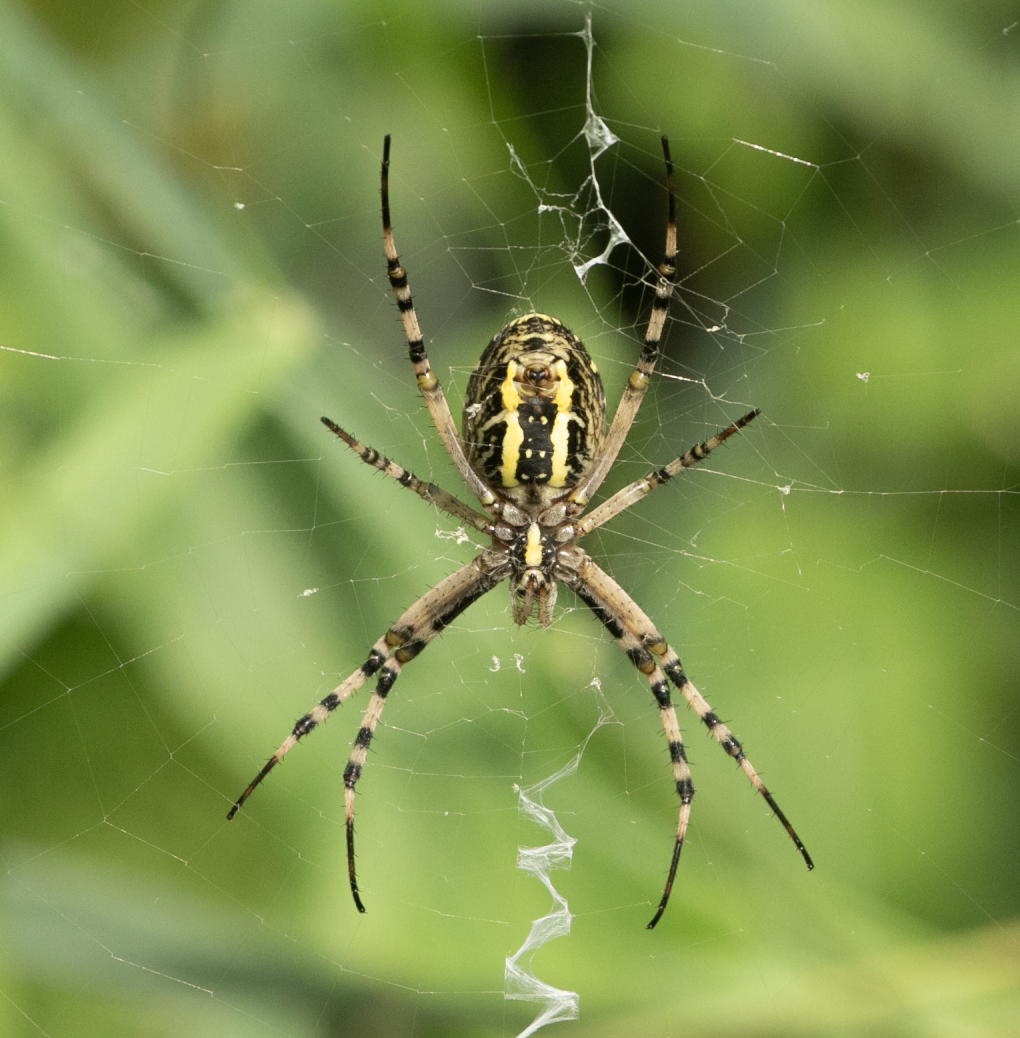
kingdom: Animalia
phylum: Arthropoda
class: Arachnida
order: Araneae
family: Araneidae
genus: Argiope
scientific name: Argiope bruennichi
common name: Wasp spider
